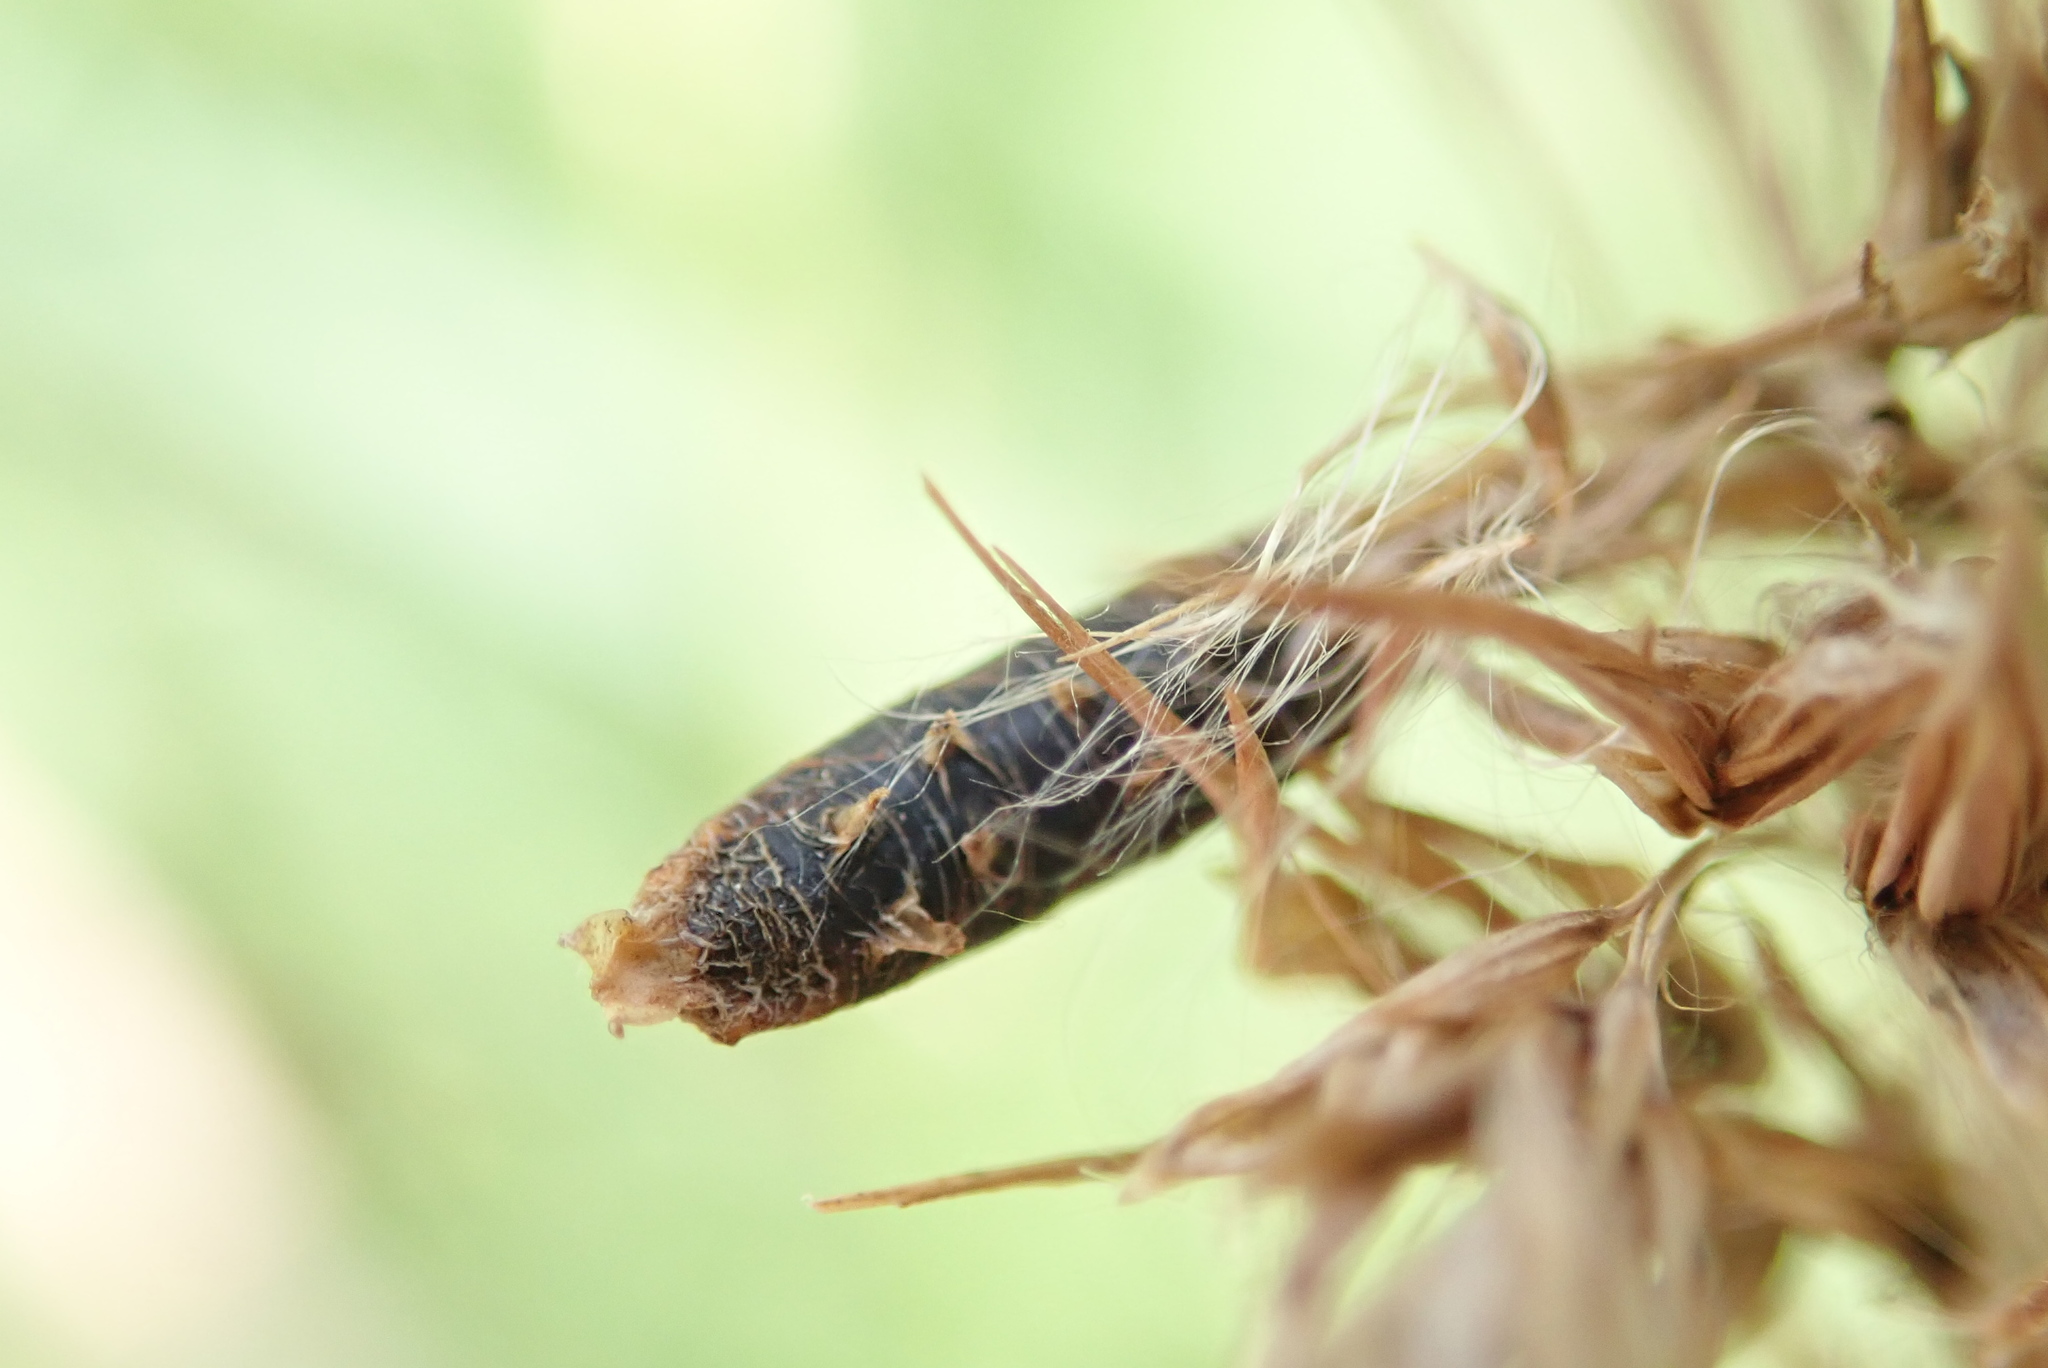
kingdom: Fungi
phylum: Ascomycota
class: Sordariomycetes
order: Hypocreales
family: Clavicipitaceae
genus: Claviceps
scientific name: Claviceps purpurea
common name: Rye ergot
